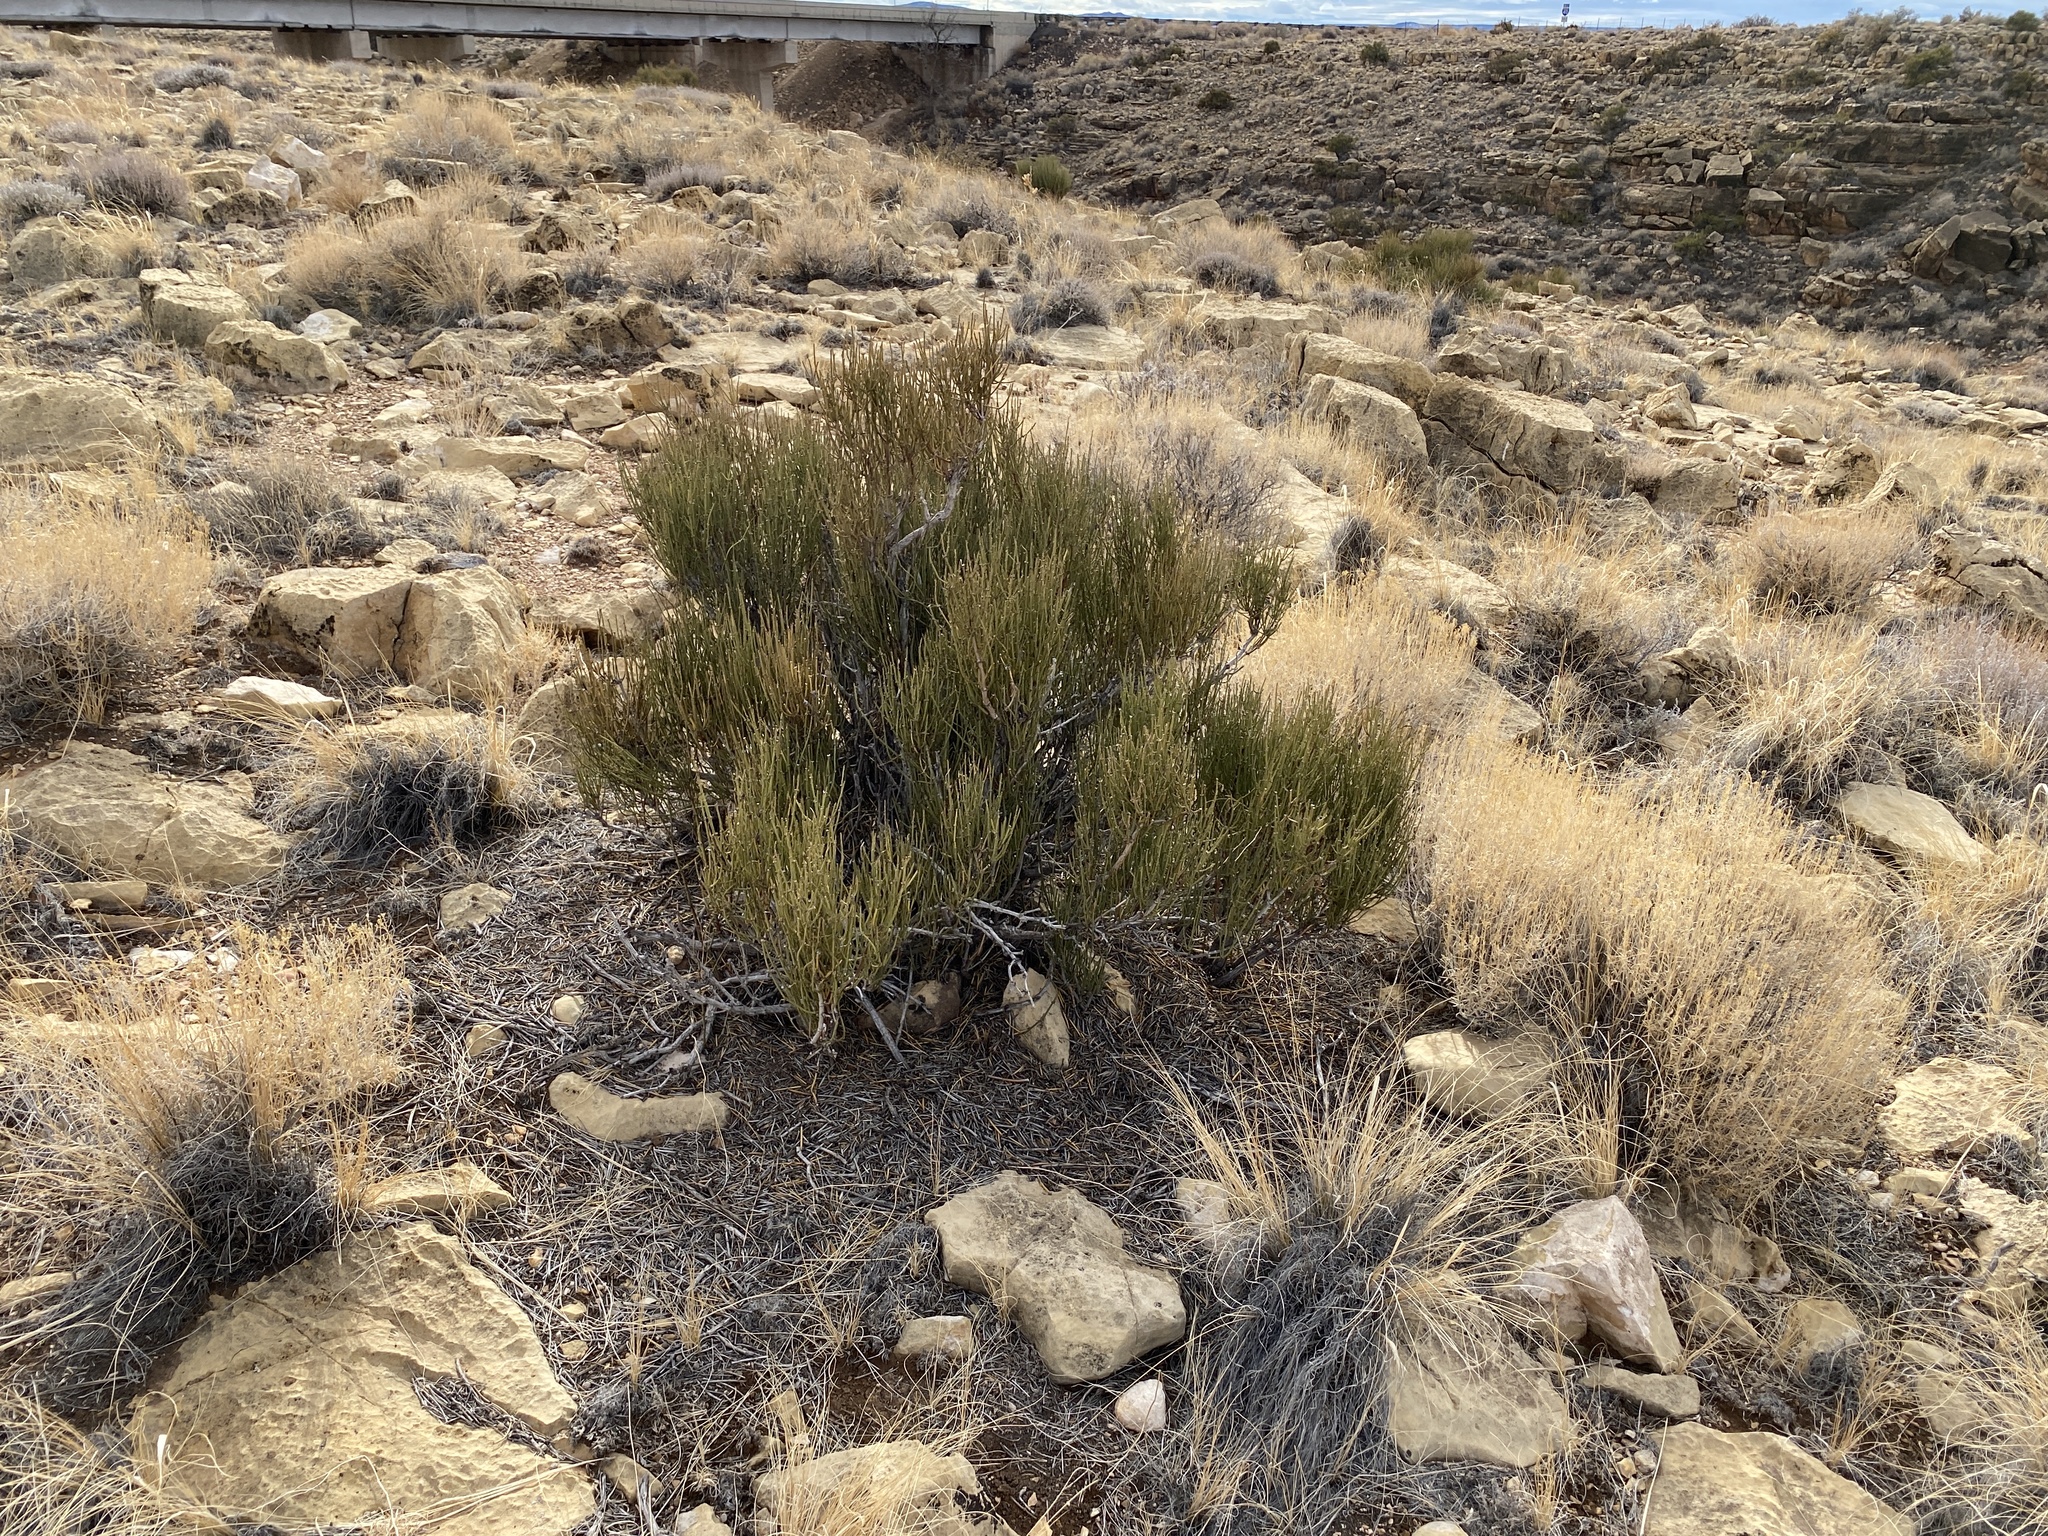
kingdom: Plantae
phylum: Tracheophyta
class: Gnetopsida
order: Ephedrales
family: Ephedraceae
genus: Ephedra
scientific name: Ephedra viridis
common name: Green ephedra
